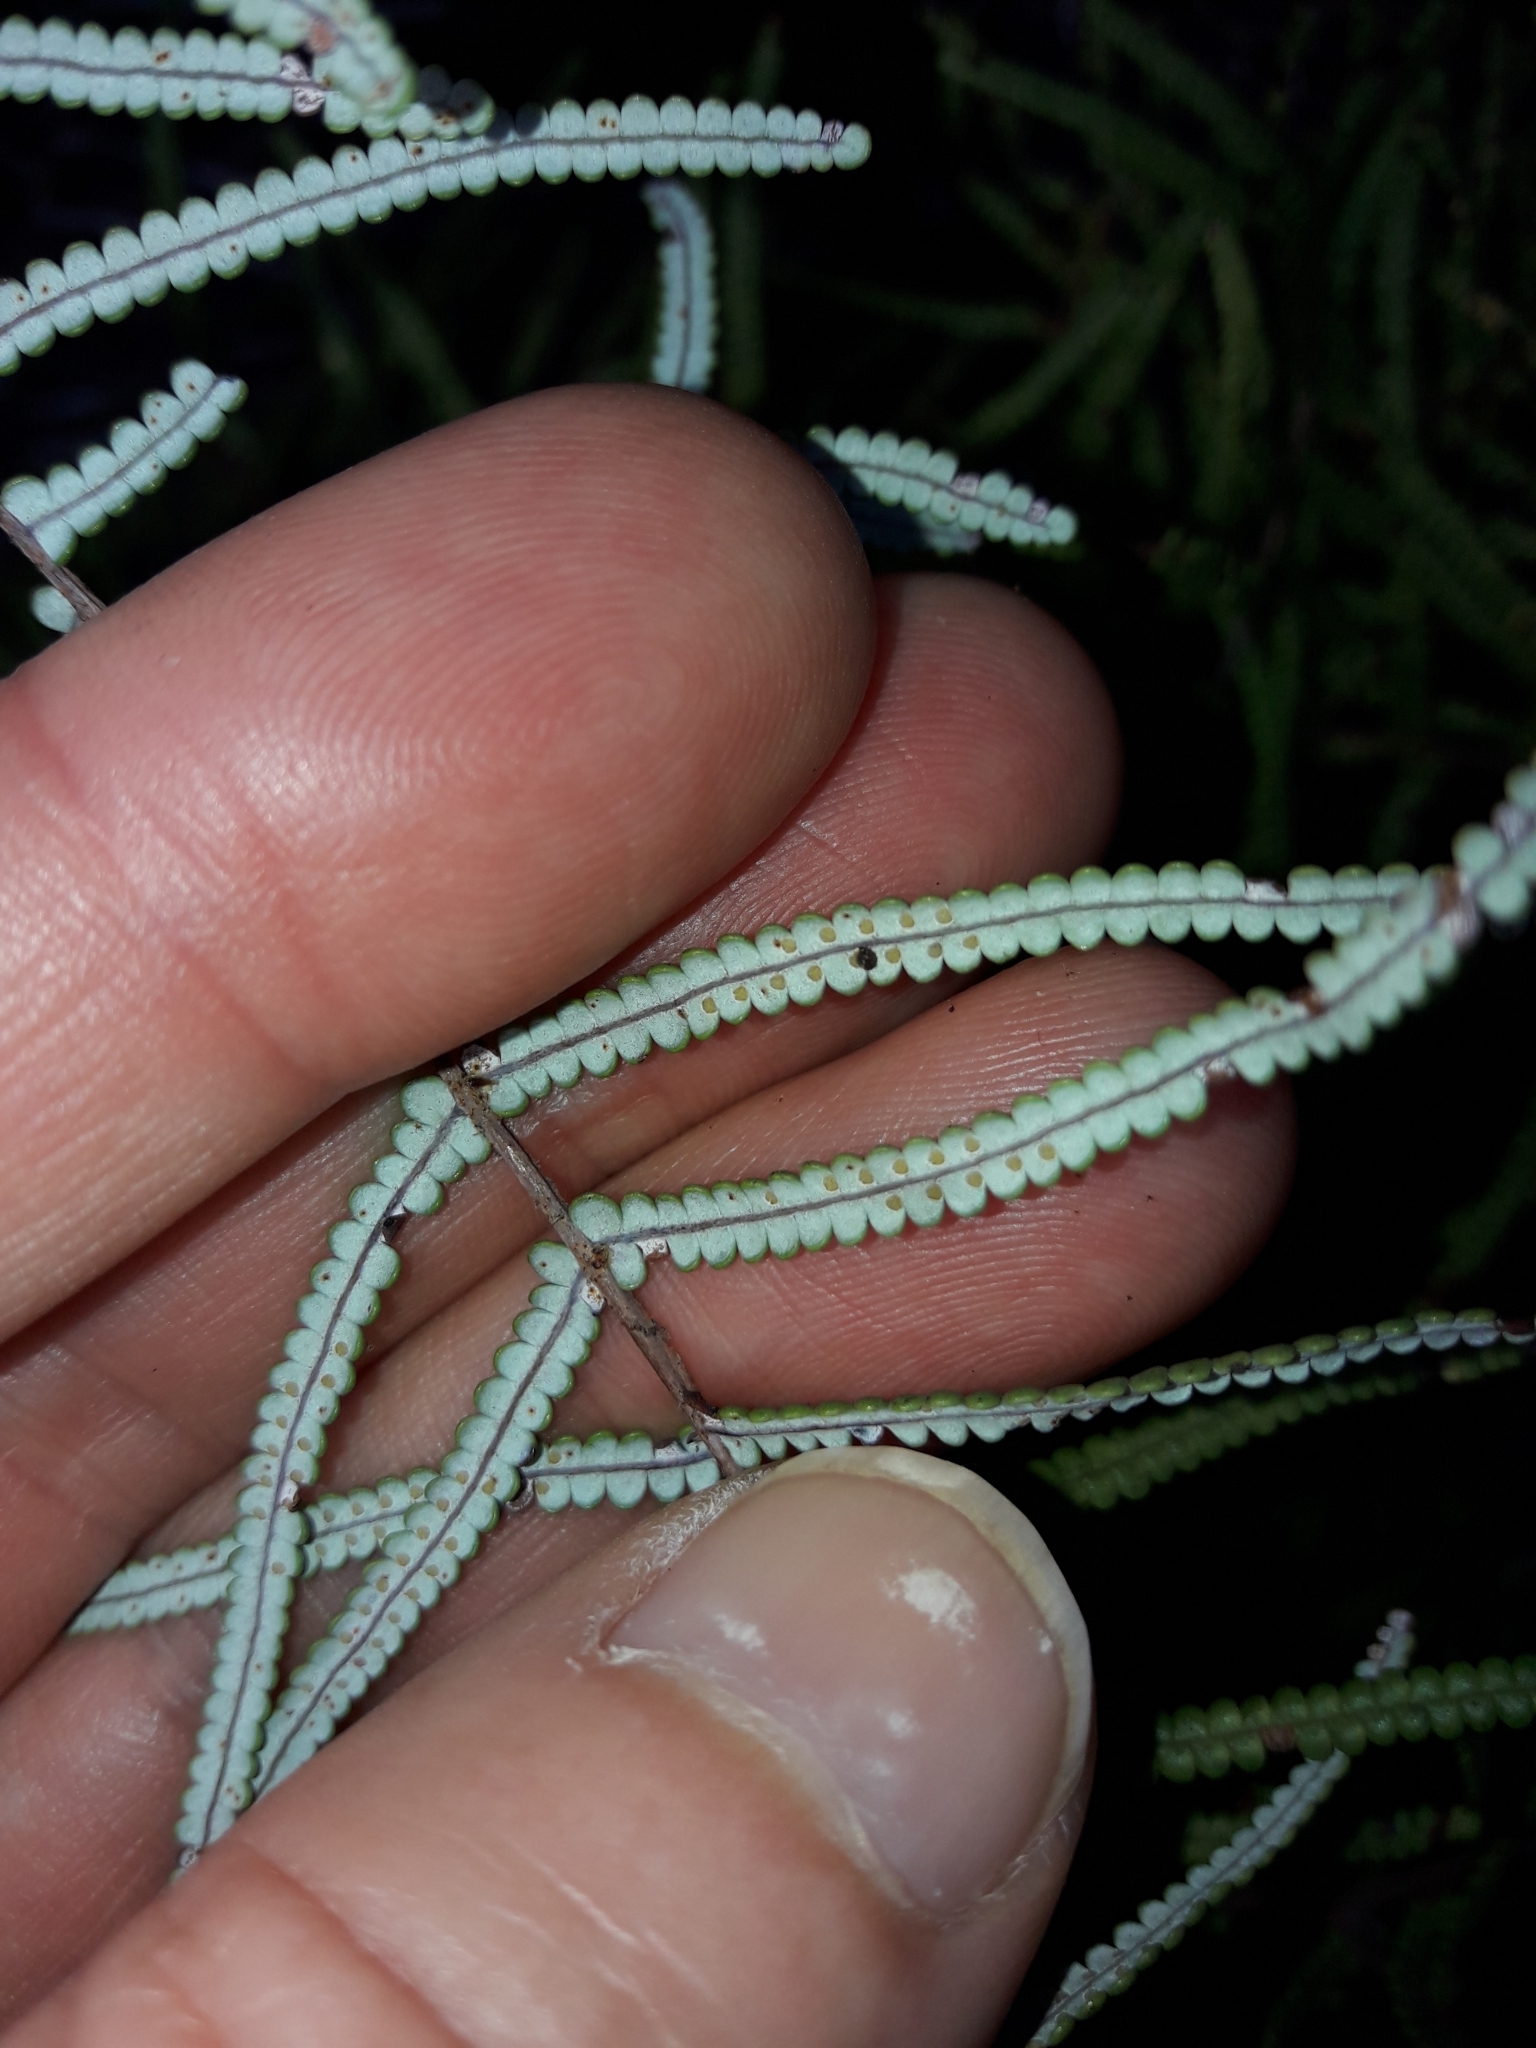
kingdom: Plantae
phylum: Tracheophyta
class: Polypodiopsida
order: Gleicheniales
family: Gleicheniaceae
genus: Gleichenia
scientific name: Gleichenia inclusisora
